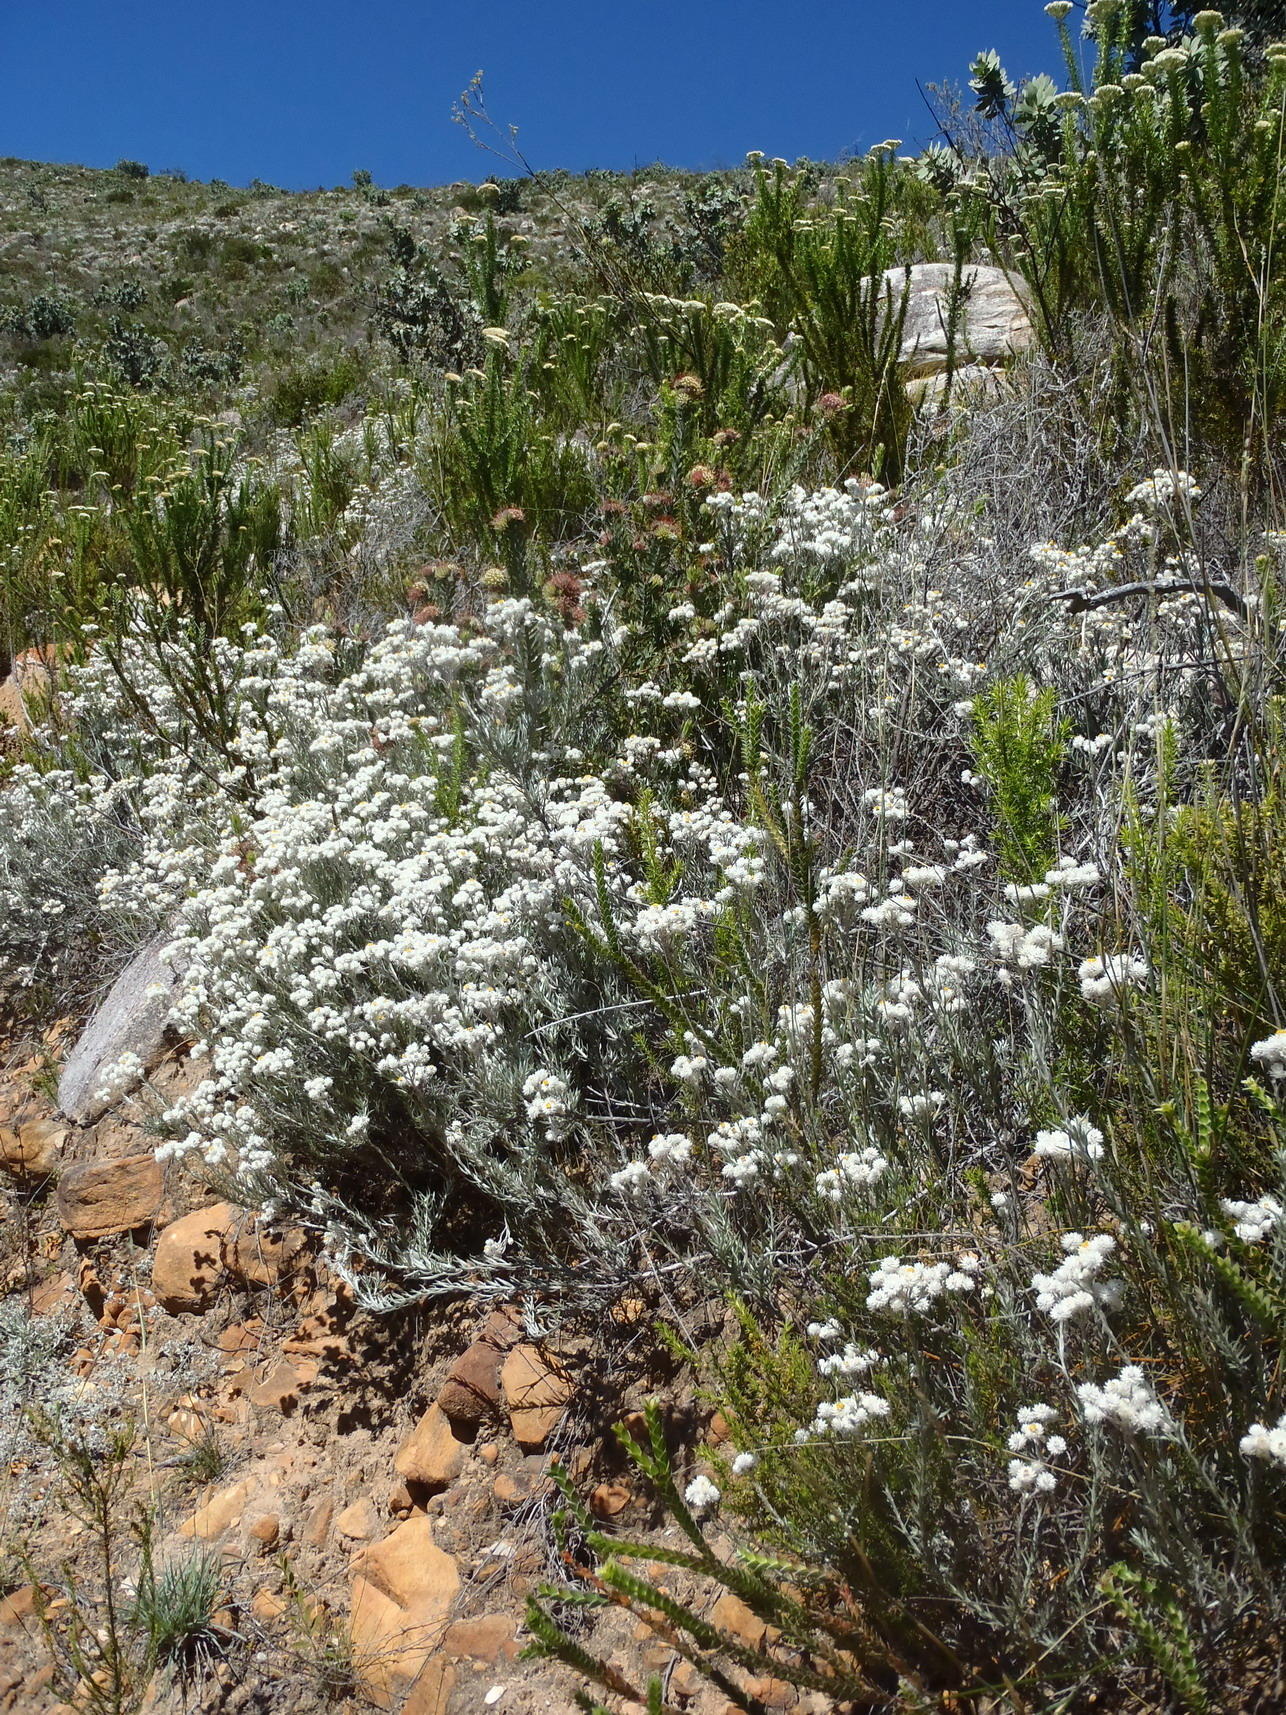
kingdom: Plantae
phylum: Tracheophyta
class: Magnoliopsida
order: Asterales
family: Asteraceae
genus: Achyranthemum
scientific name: Achyranthemum paniculatum
